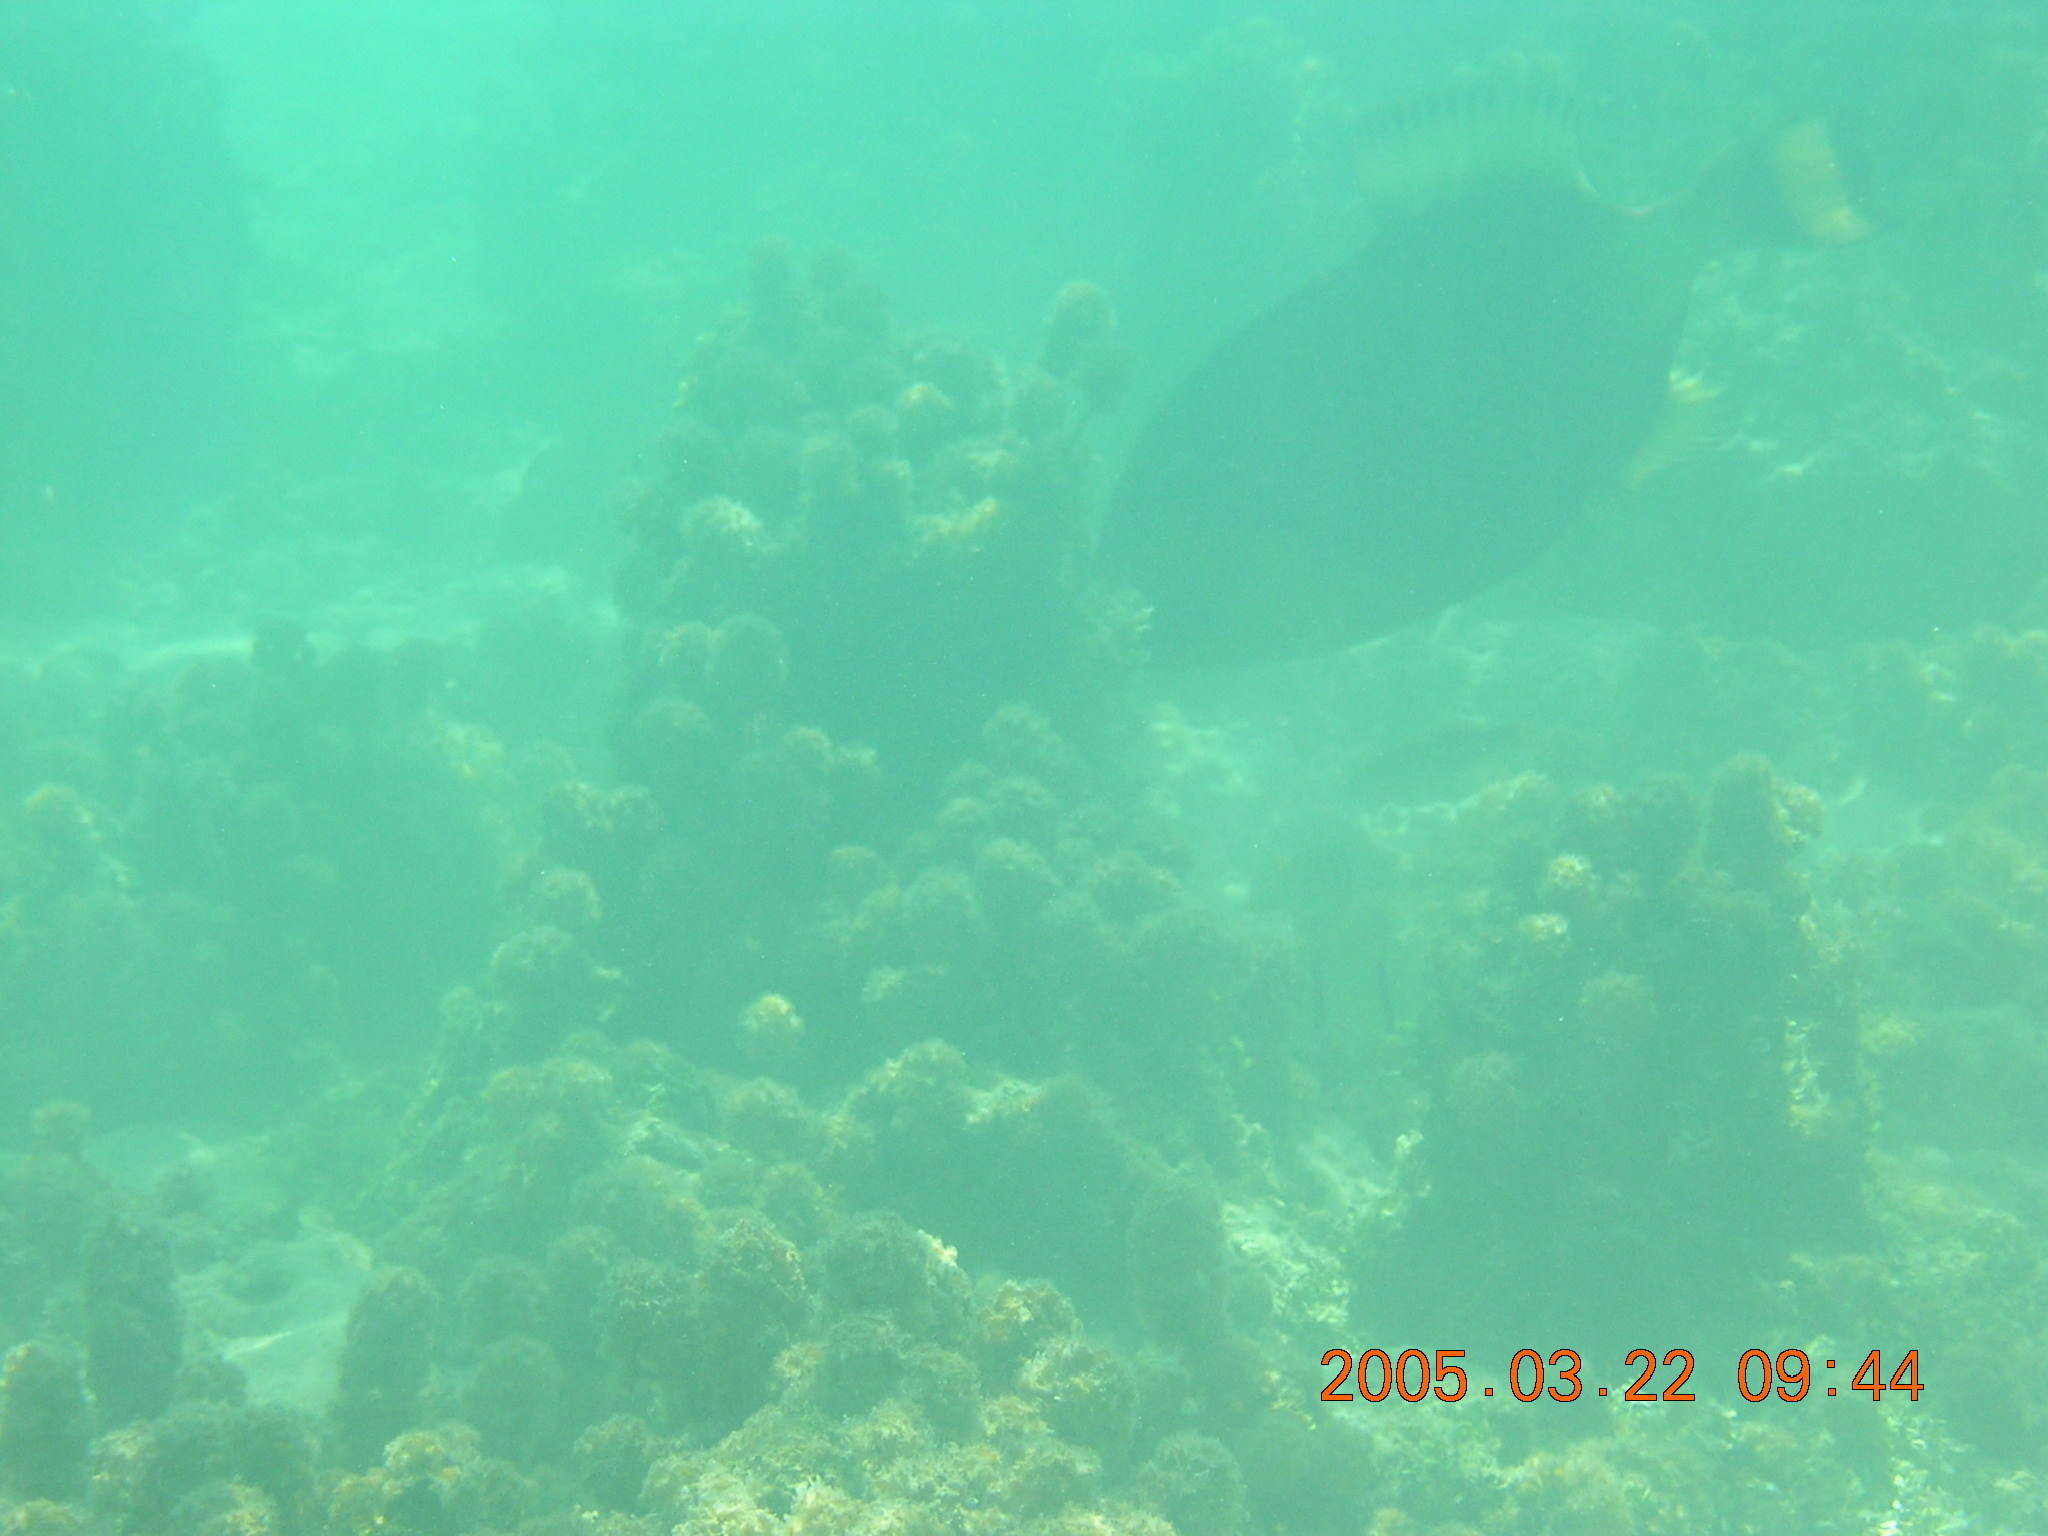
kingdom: Animalia
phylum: Chordata
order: Tetraodontiformes
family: Balistidae
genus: Balistoides
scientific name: Balistoides viridescens
